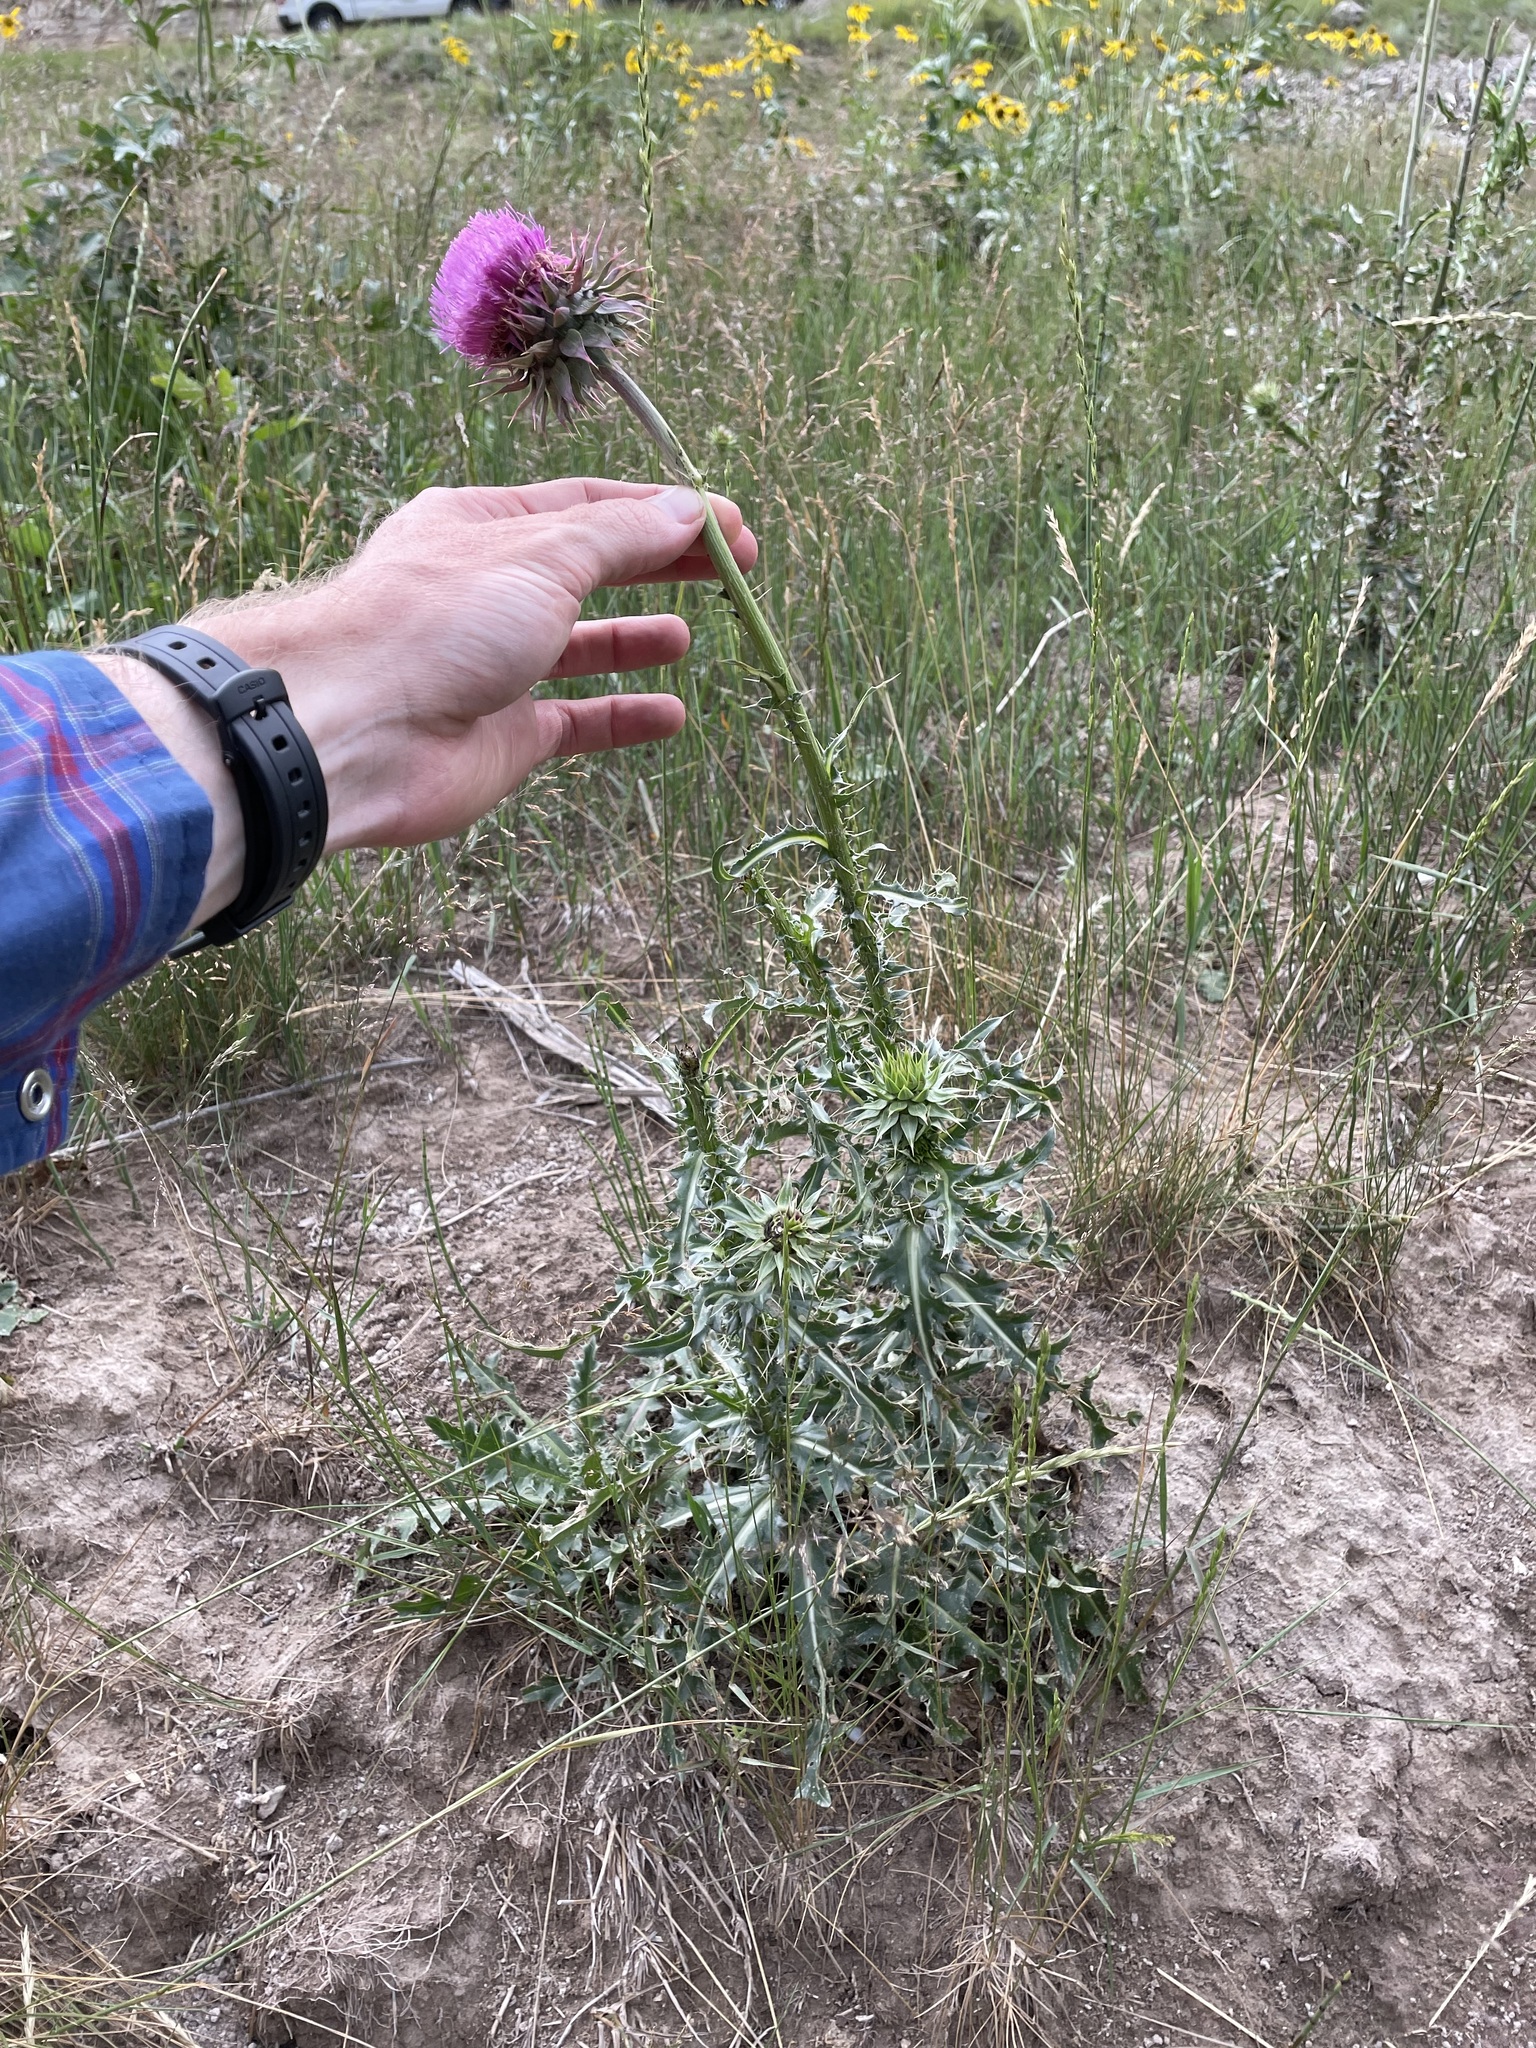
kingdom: Plantae
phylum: Tracheophyta
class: Magnoliopsida
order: Asterales
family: Asteraceae
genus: Carduus
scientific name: Carduus nutans
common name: Musk thistle
